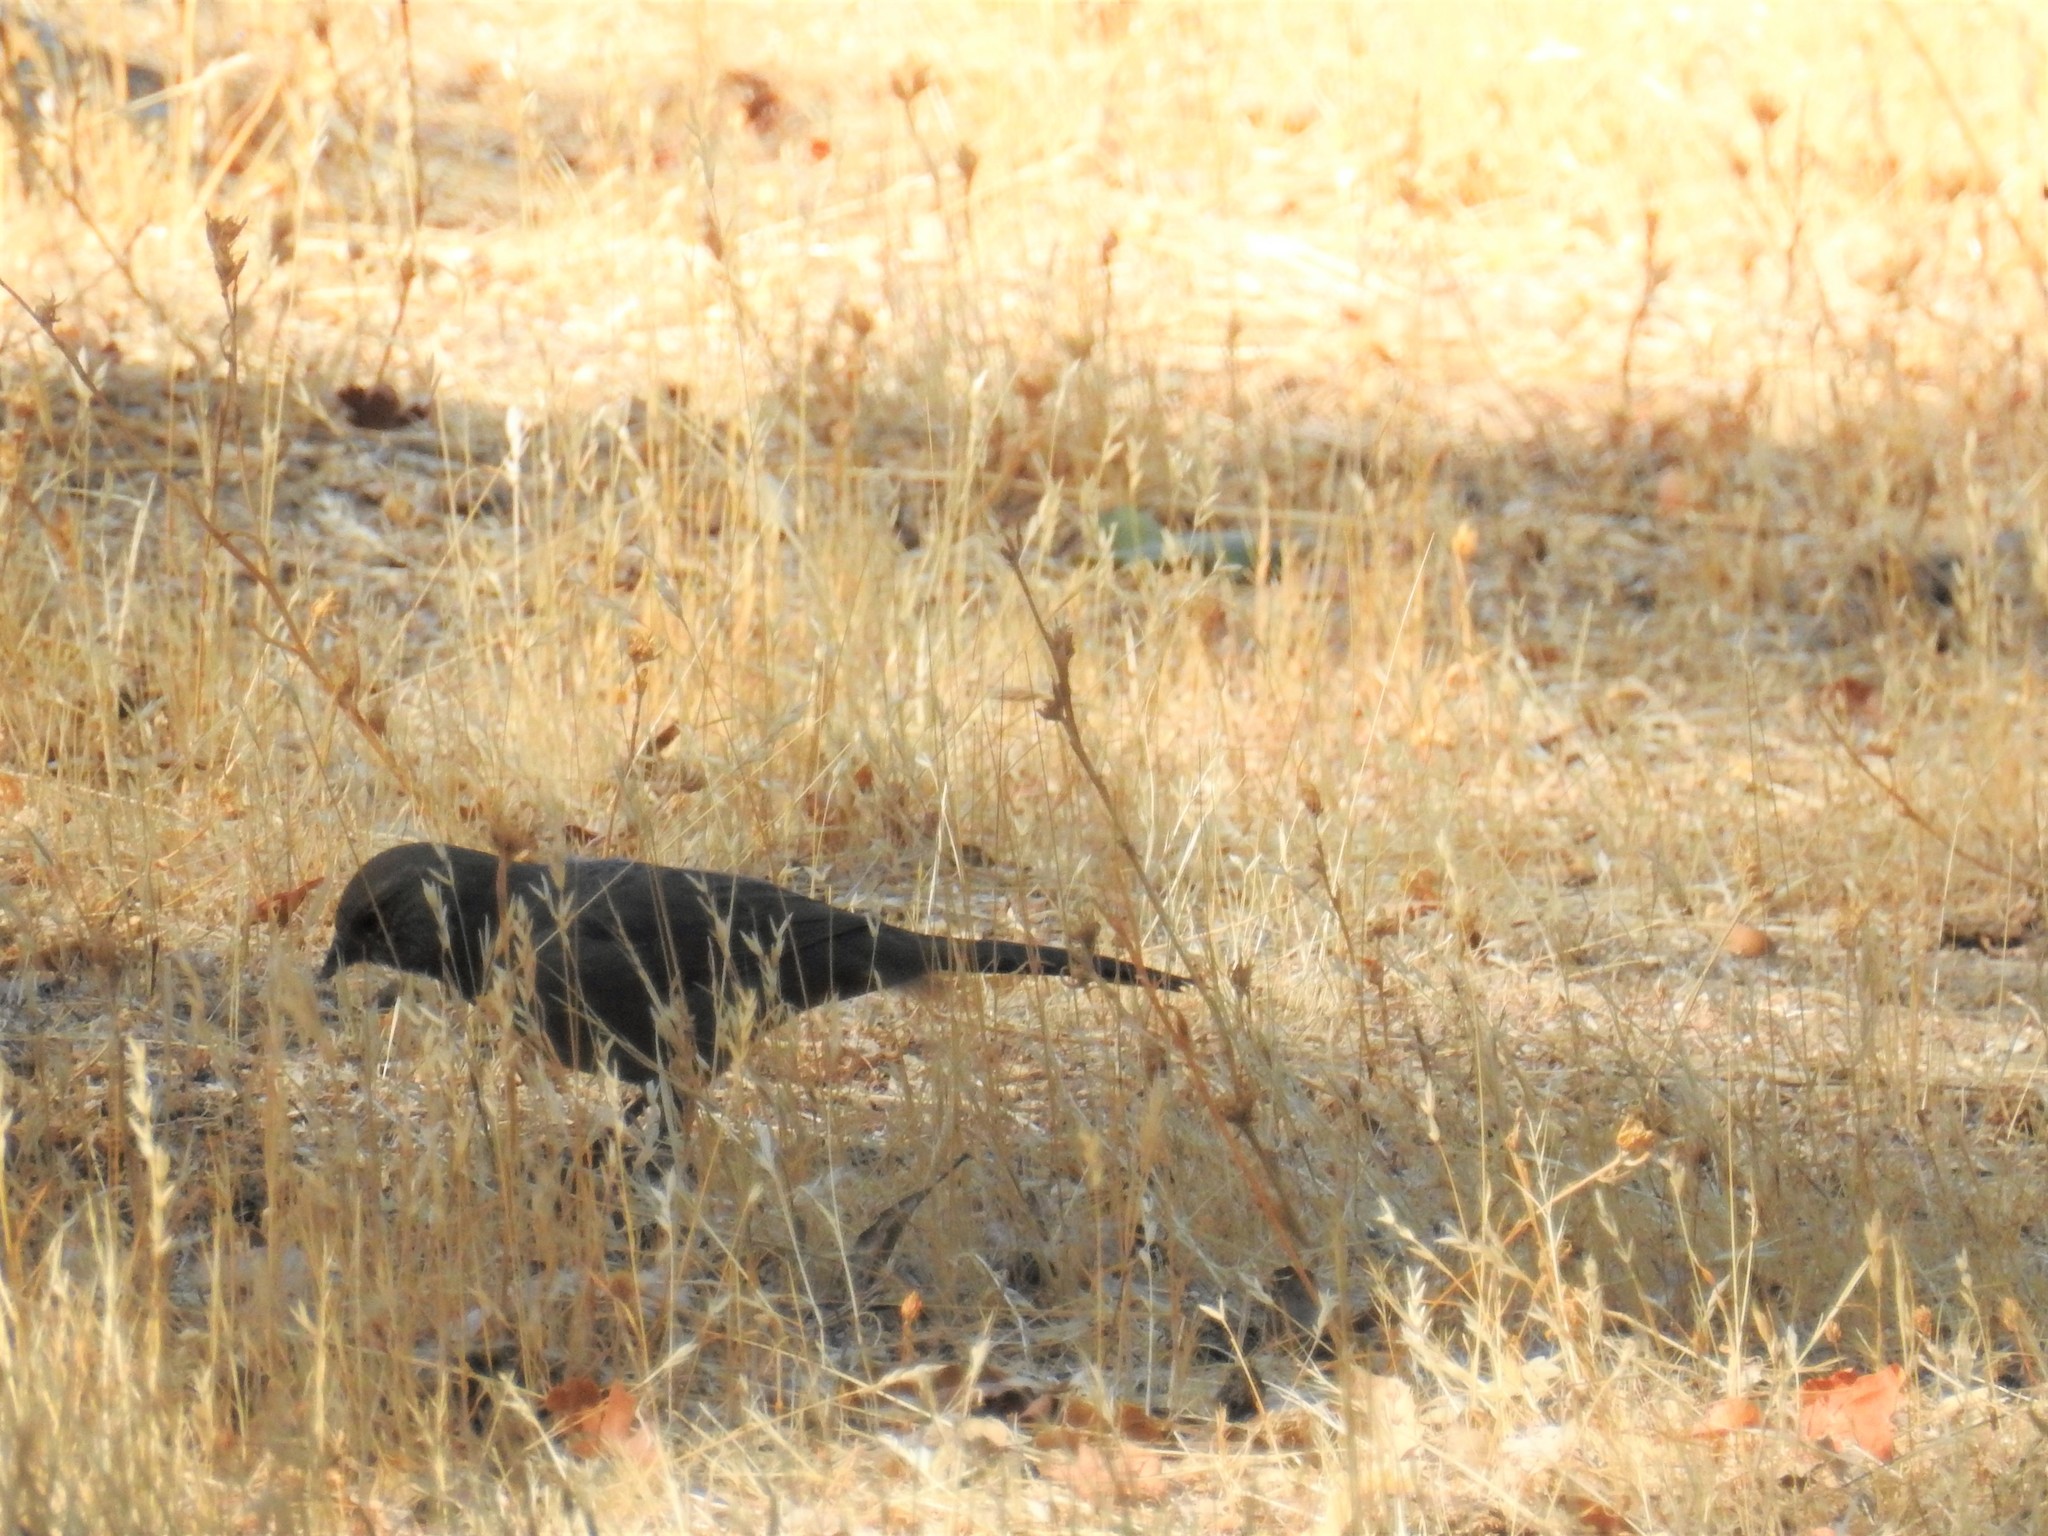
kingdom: Animalia
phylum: Chordata
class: Aves
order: Passeriformes
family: Passerellidae
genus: Melozone
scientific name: Melozone crissalis
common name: California towhee
